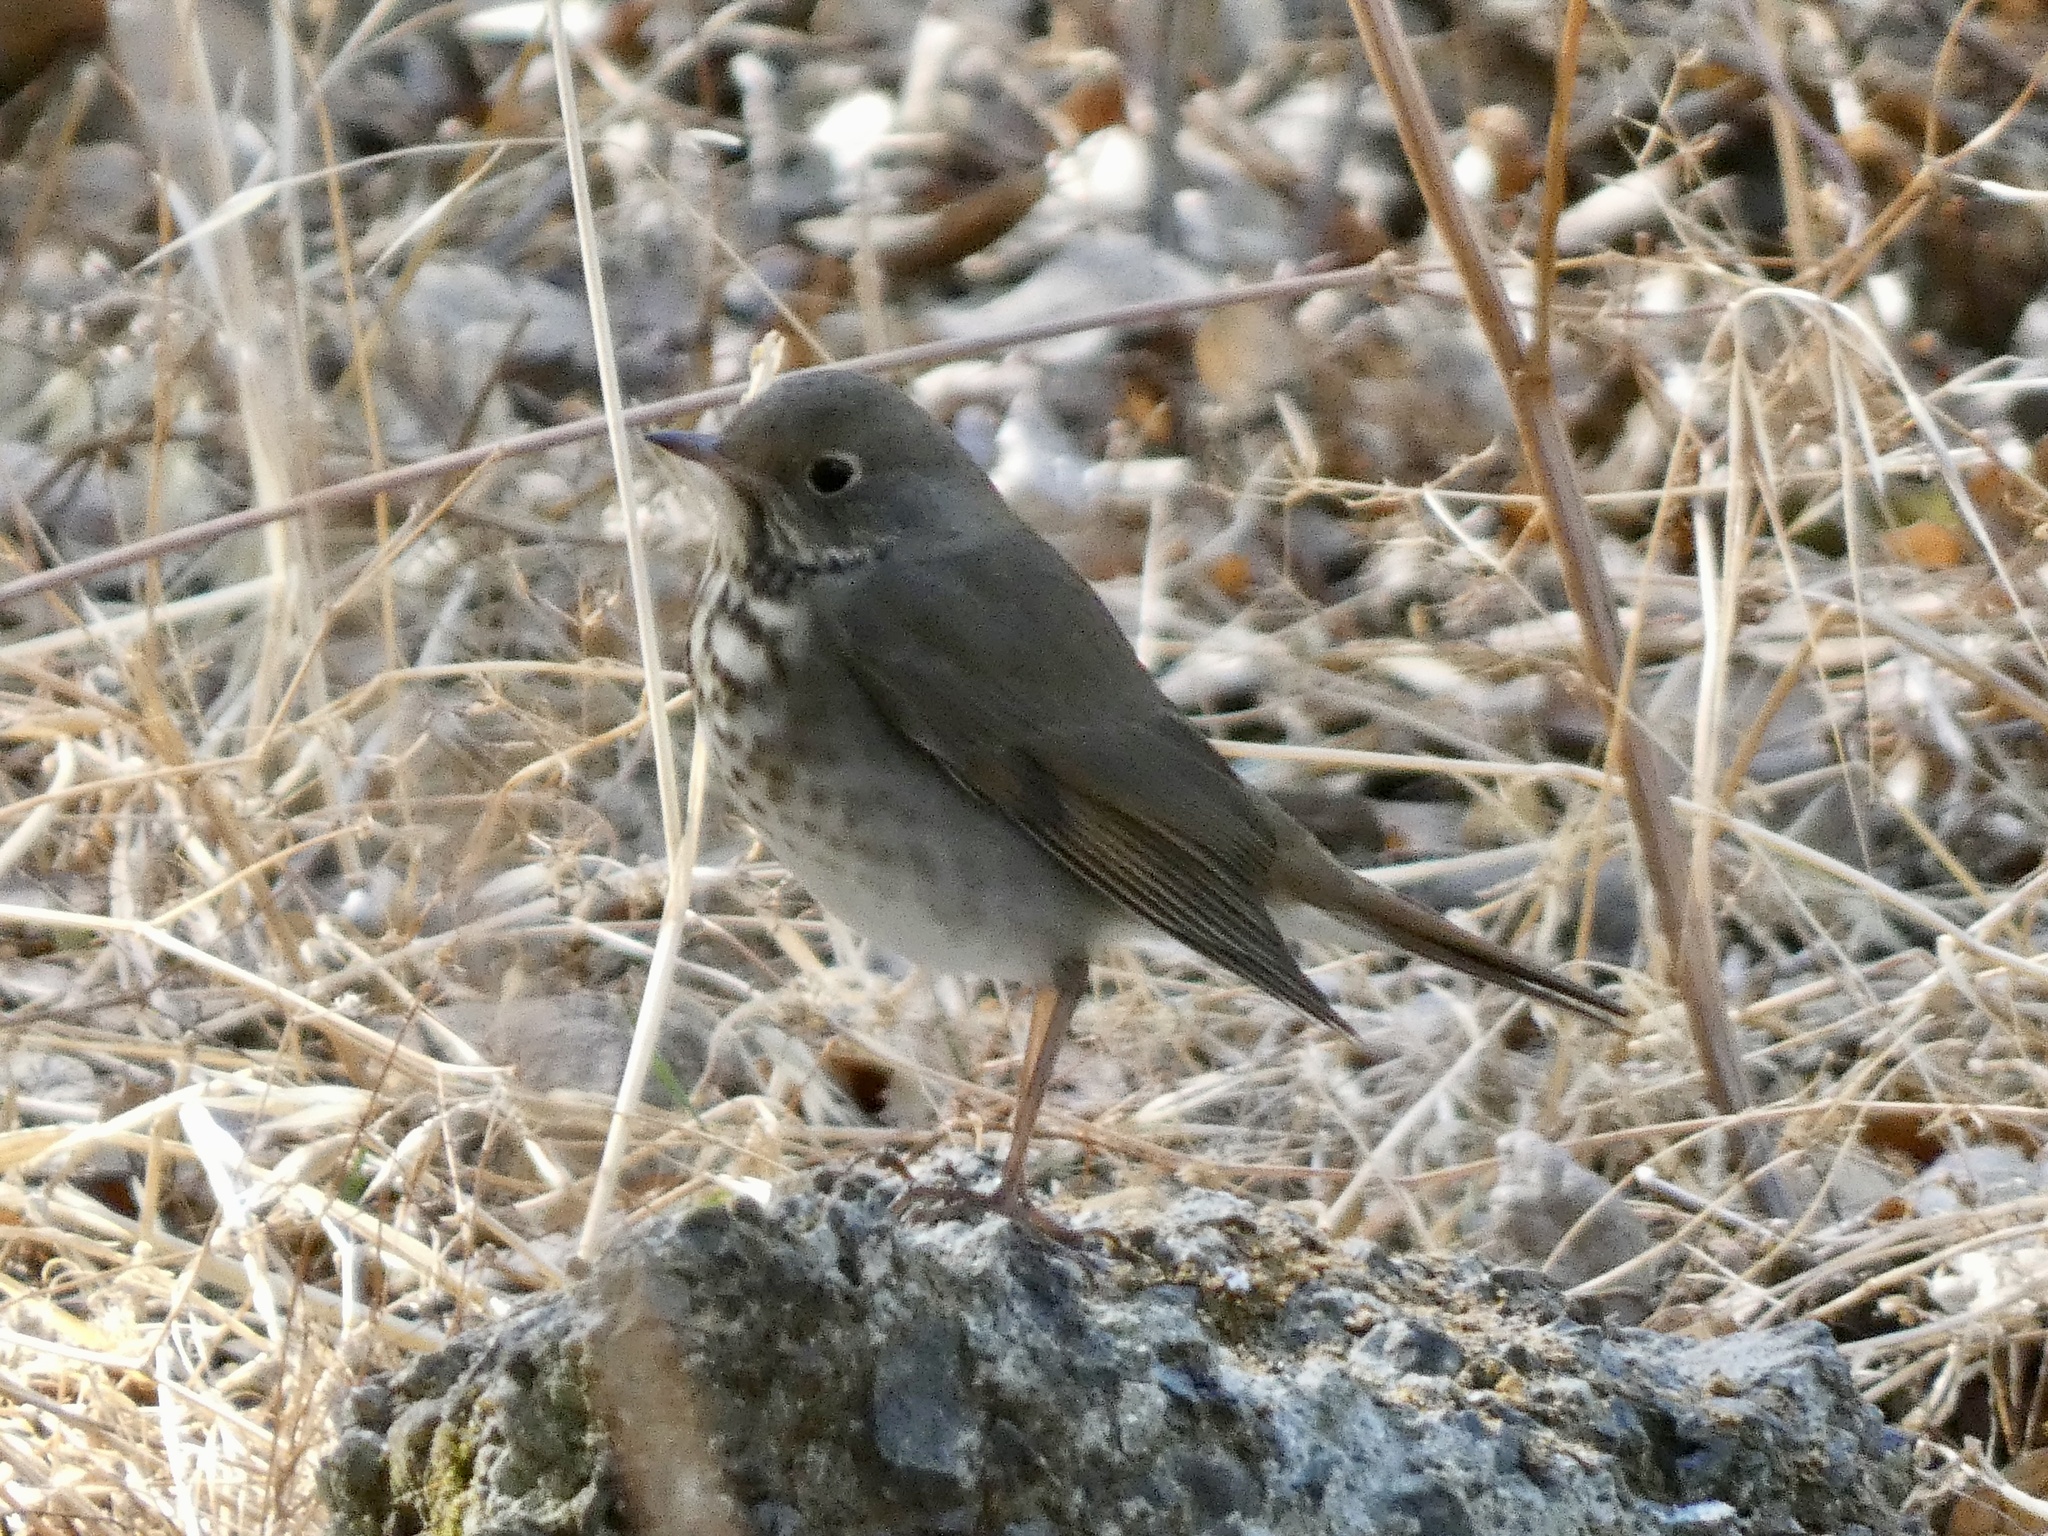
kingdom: Animalia
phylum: Chordata
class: Aves
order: Passeriformes
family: Turdidae
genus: Catharus
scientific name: Catharus guttatus
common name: Hermit thrush
